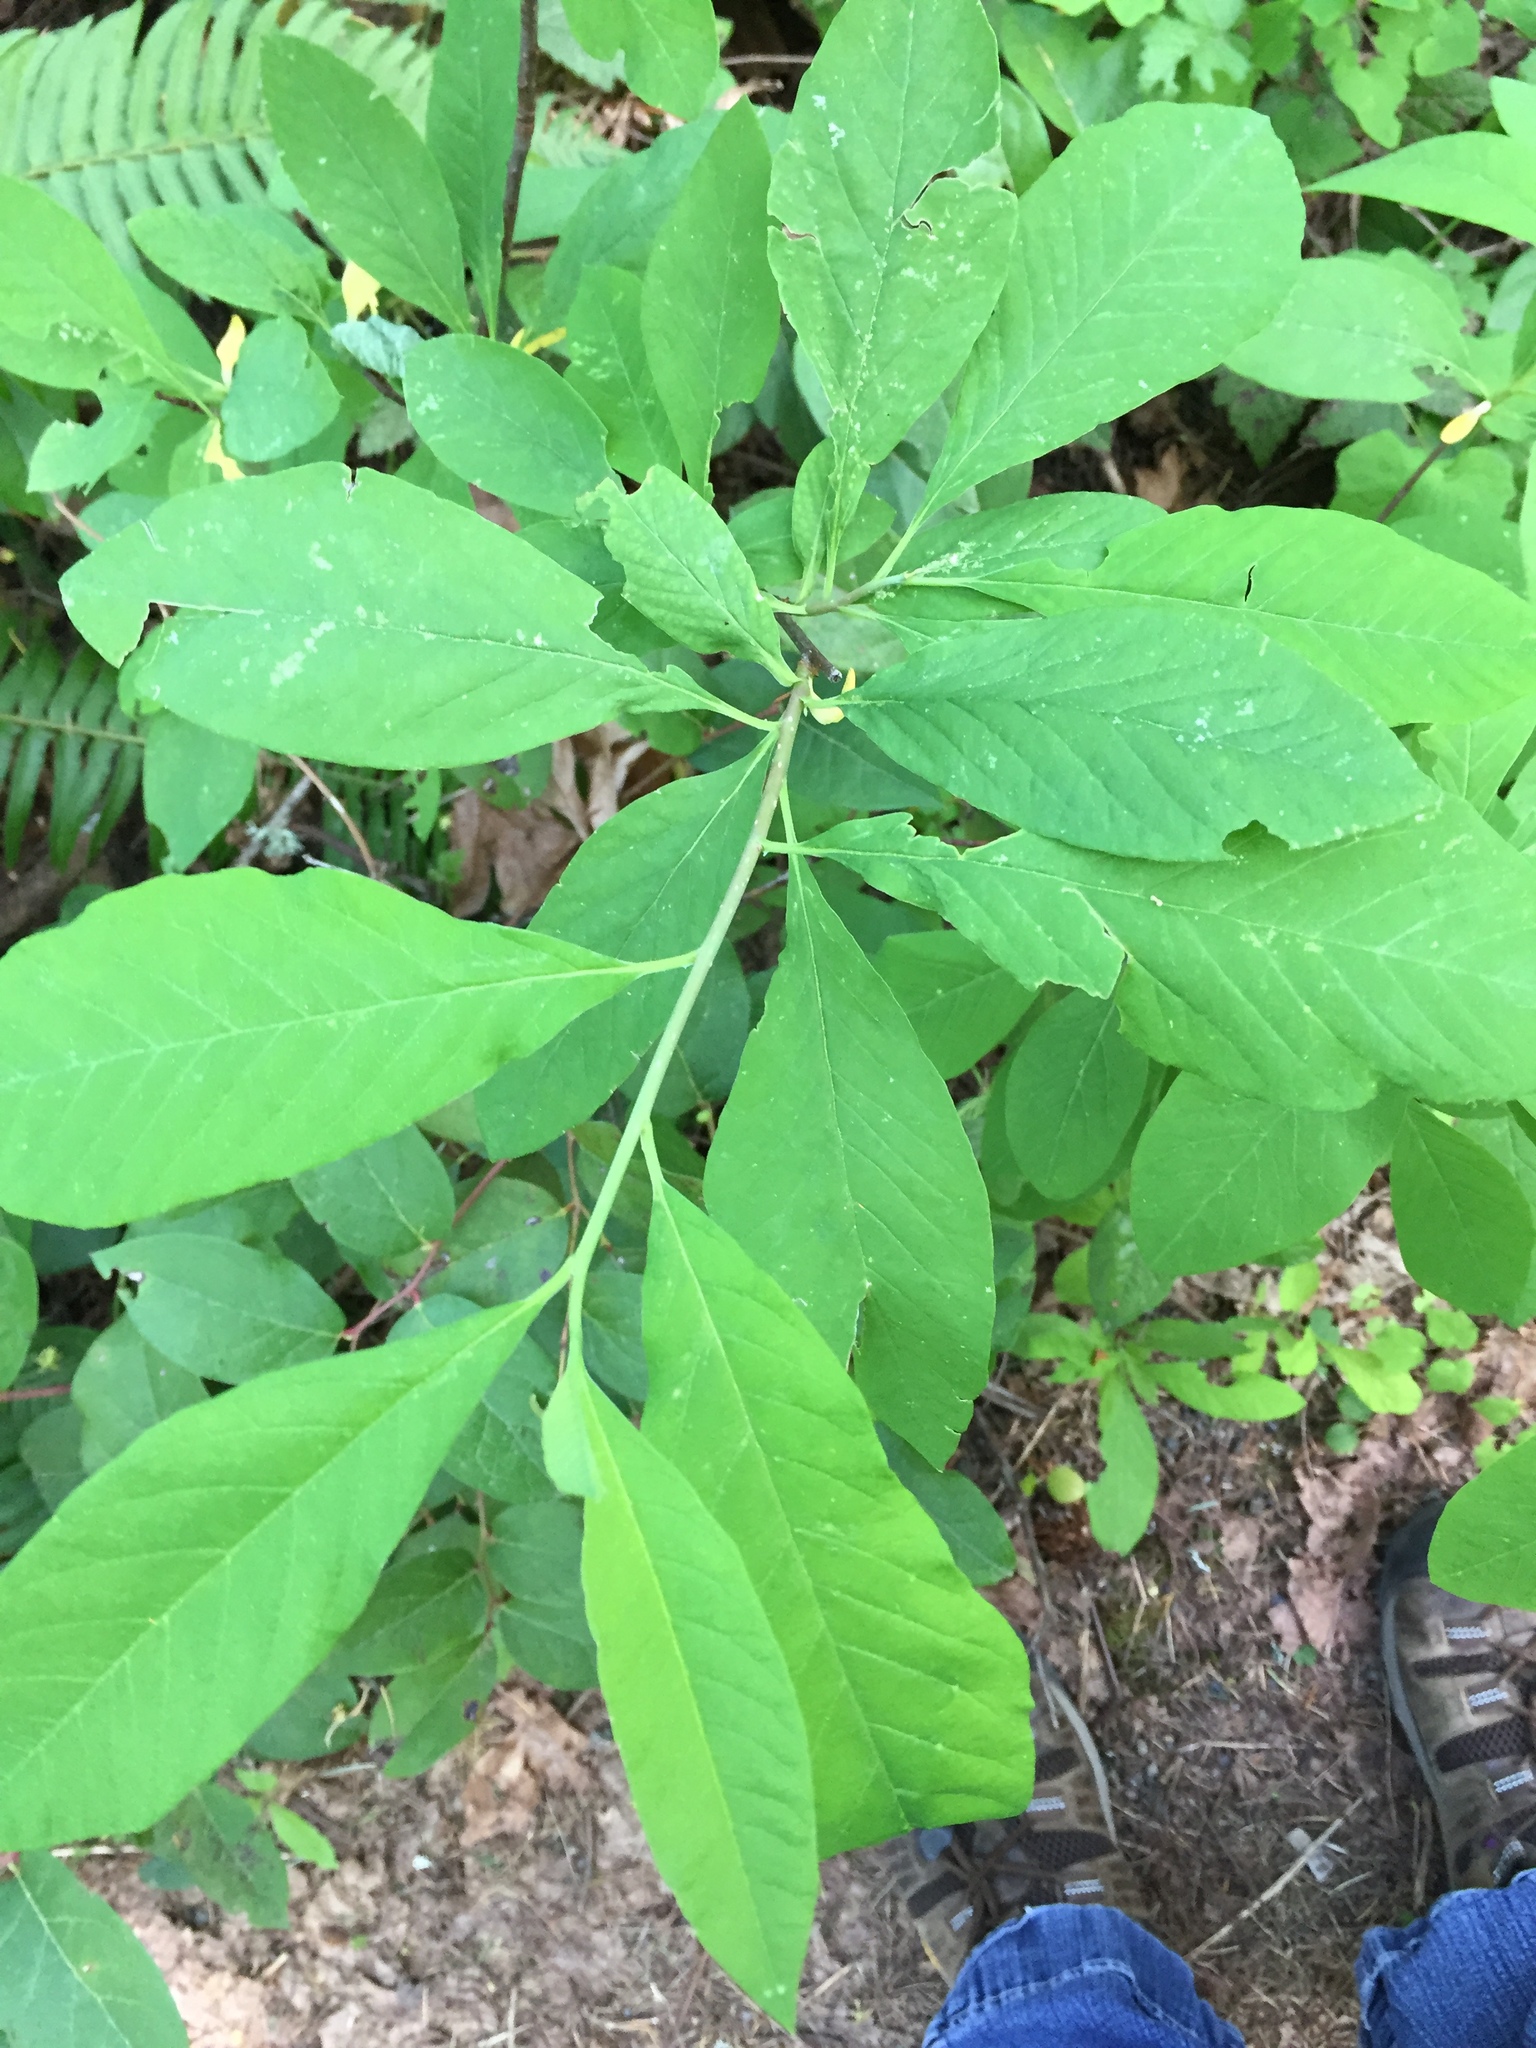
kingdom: Plantae
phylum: Tracheophyta
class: Magnoliopsida
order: Rosales
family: Rosaceae
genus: Oemleria
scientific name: Oemleria cerasiformis
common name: Osoberry
